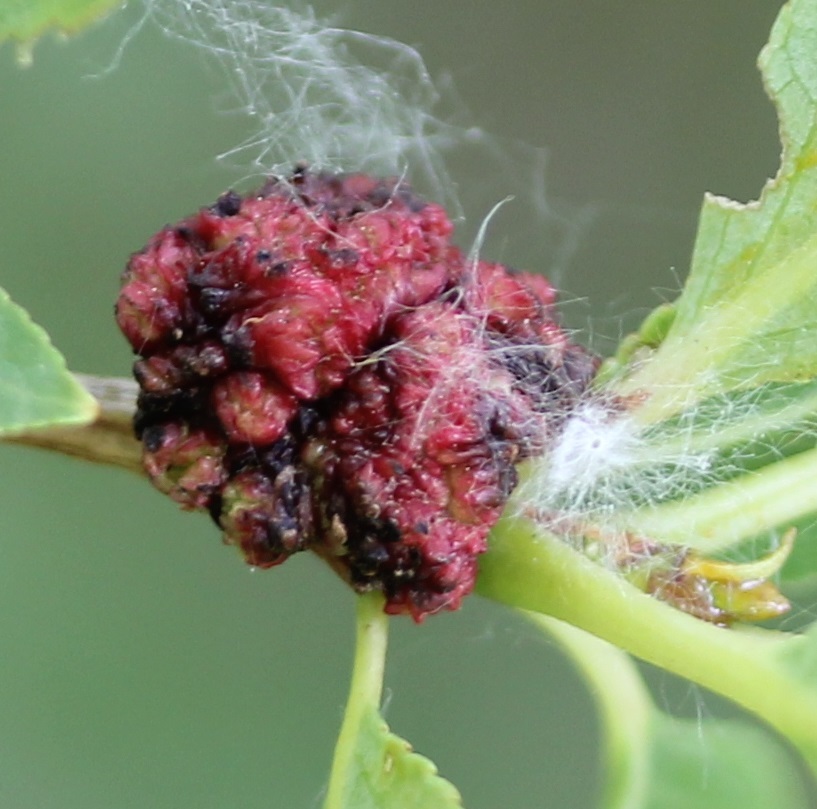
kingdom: Animalia
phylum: Arthropoda
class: Arachnida
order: Trombidiformes
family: Eriophyidae
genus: Aculops
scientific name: Aculops
